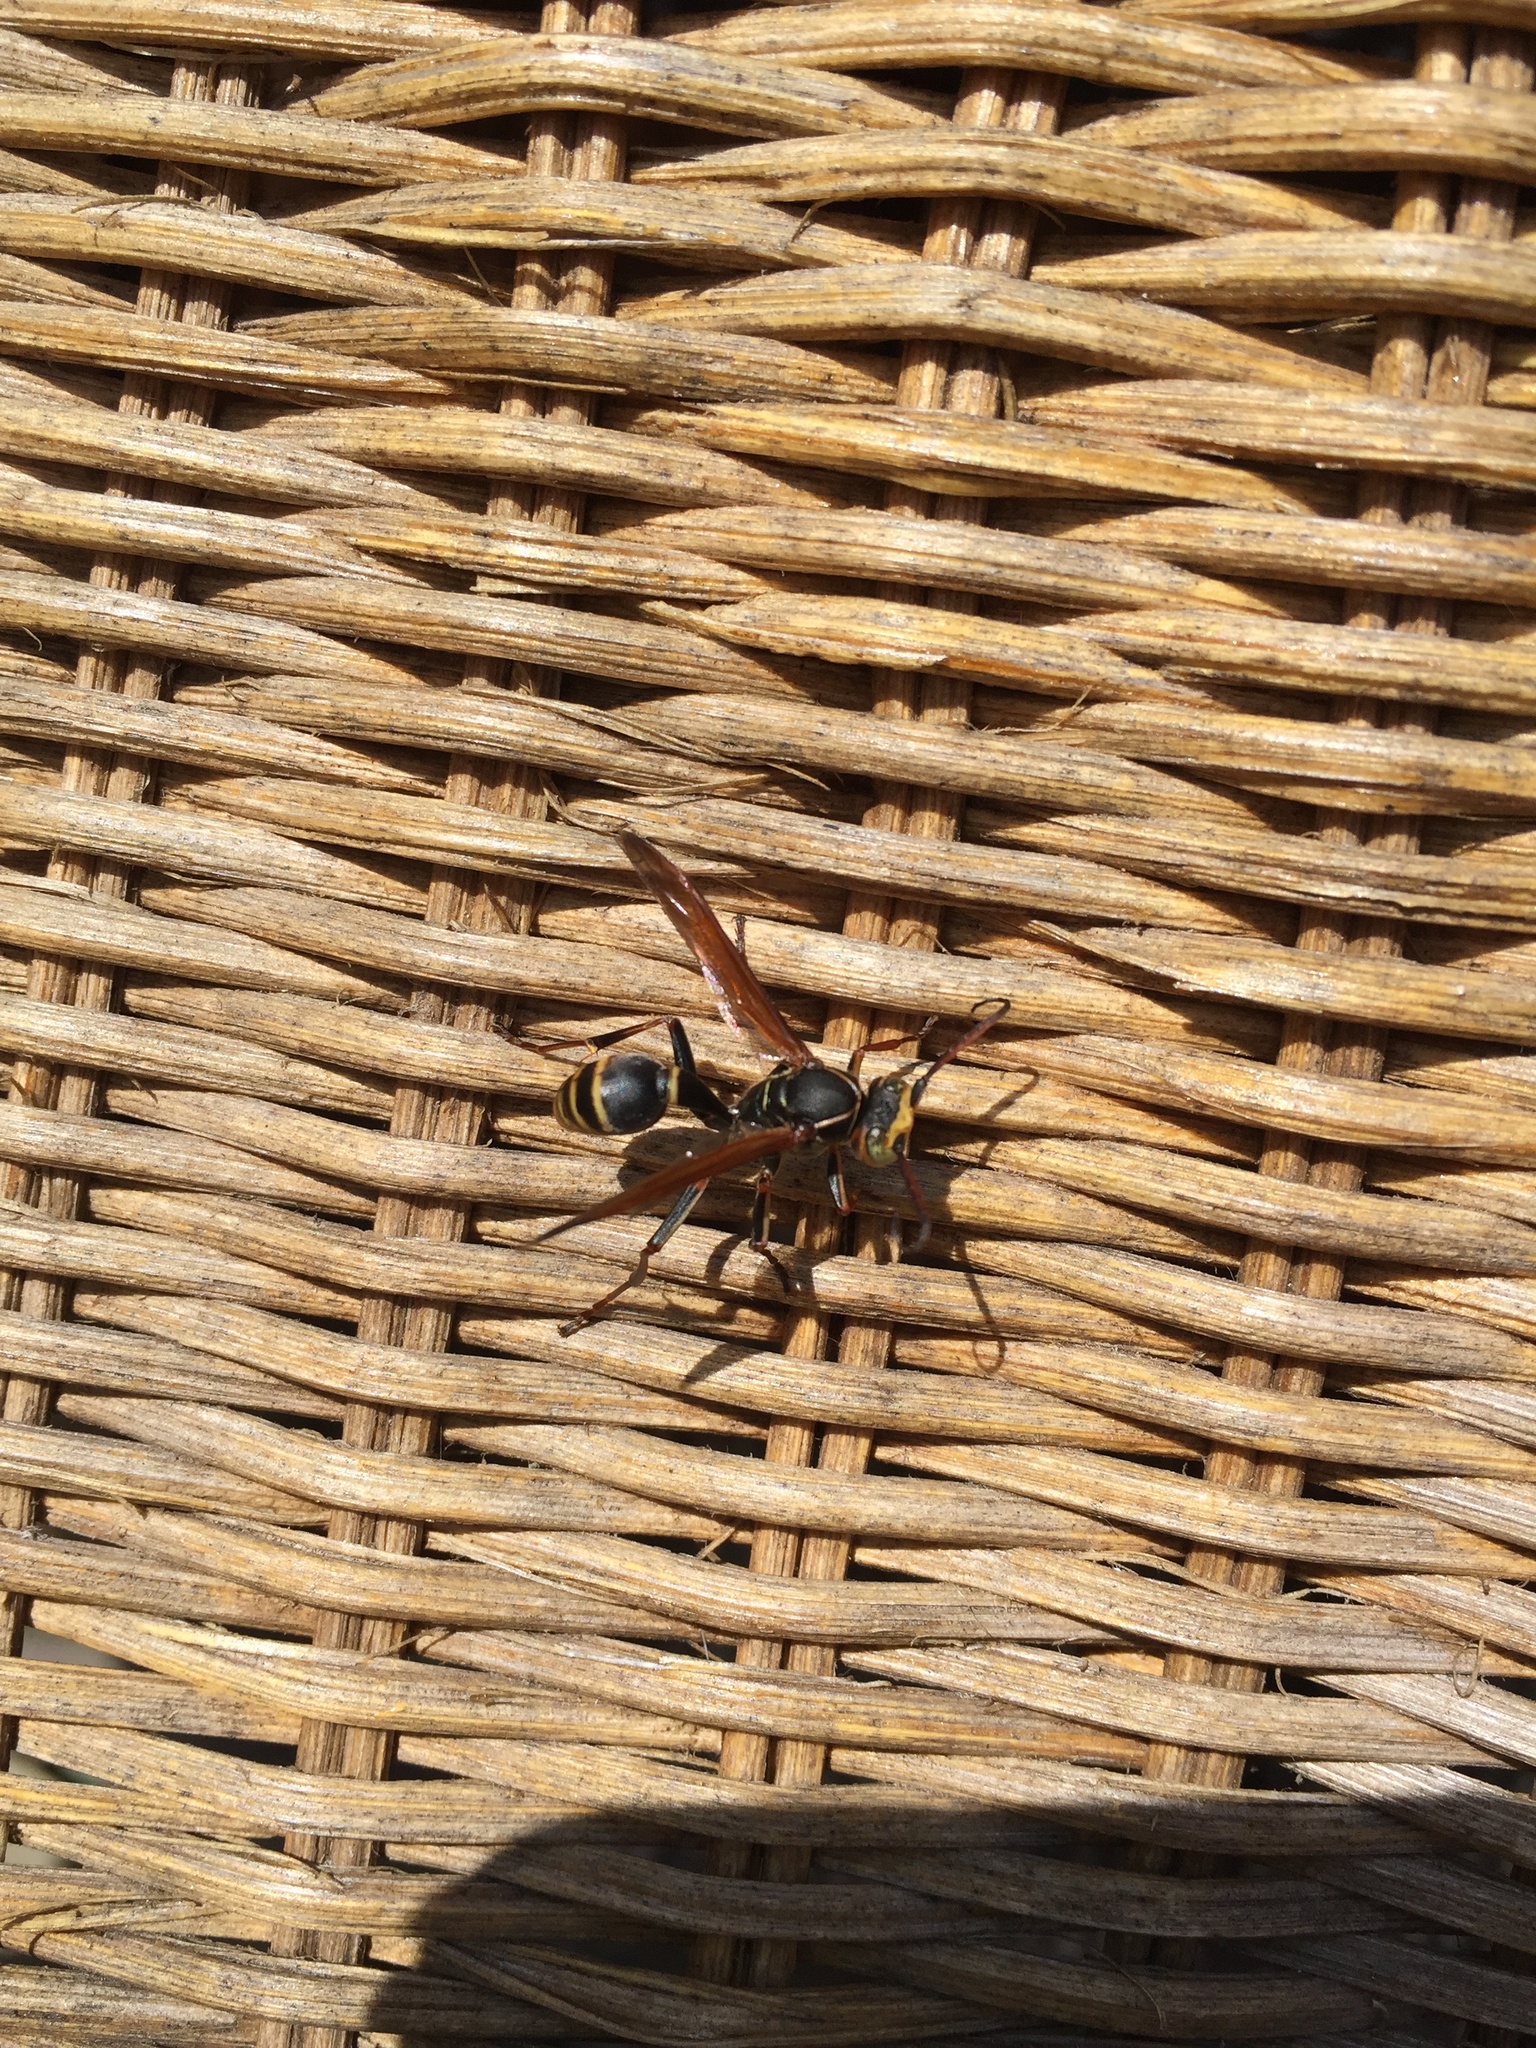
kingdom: Animalia
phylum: Arthropoda
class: Insecta
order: Hymenoptera
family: Vespidae
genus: Mischocyttarus
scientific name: Mischocyttarus flavitarsis
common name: Wasp
